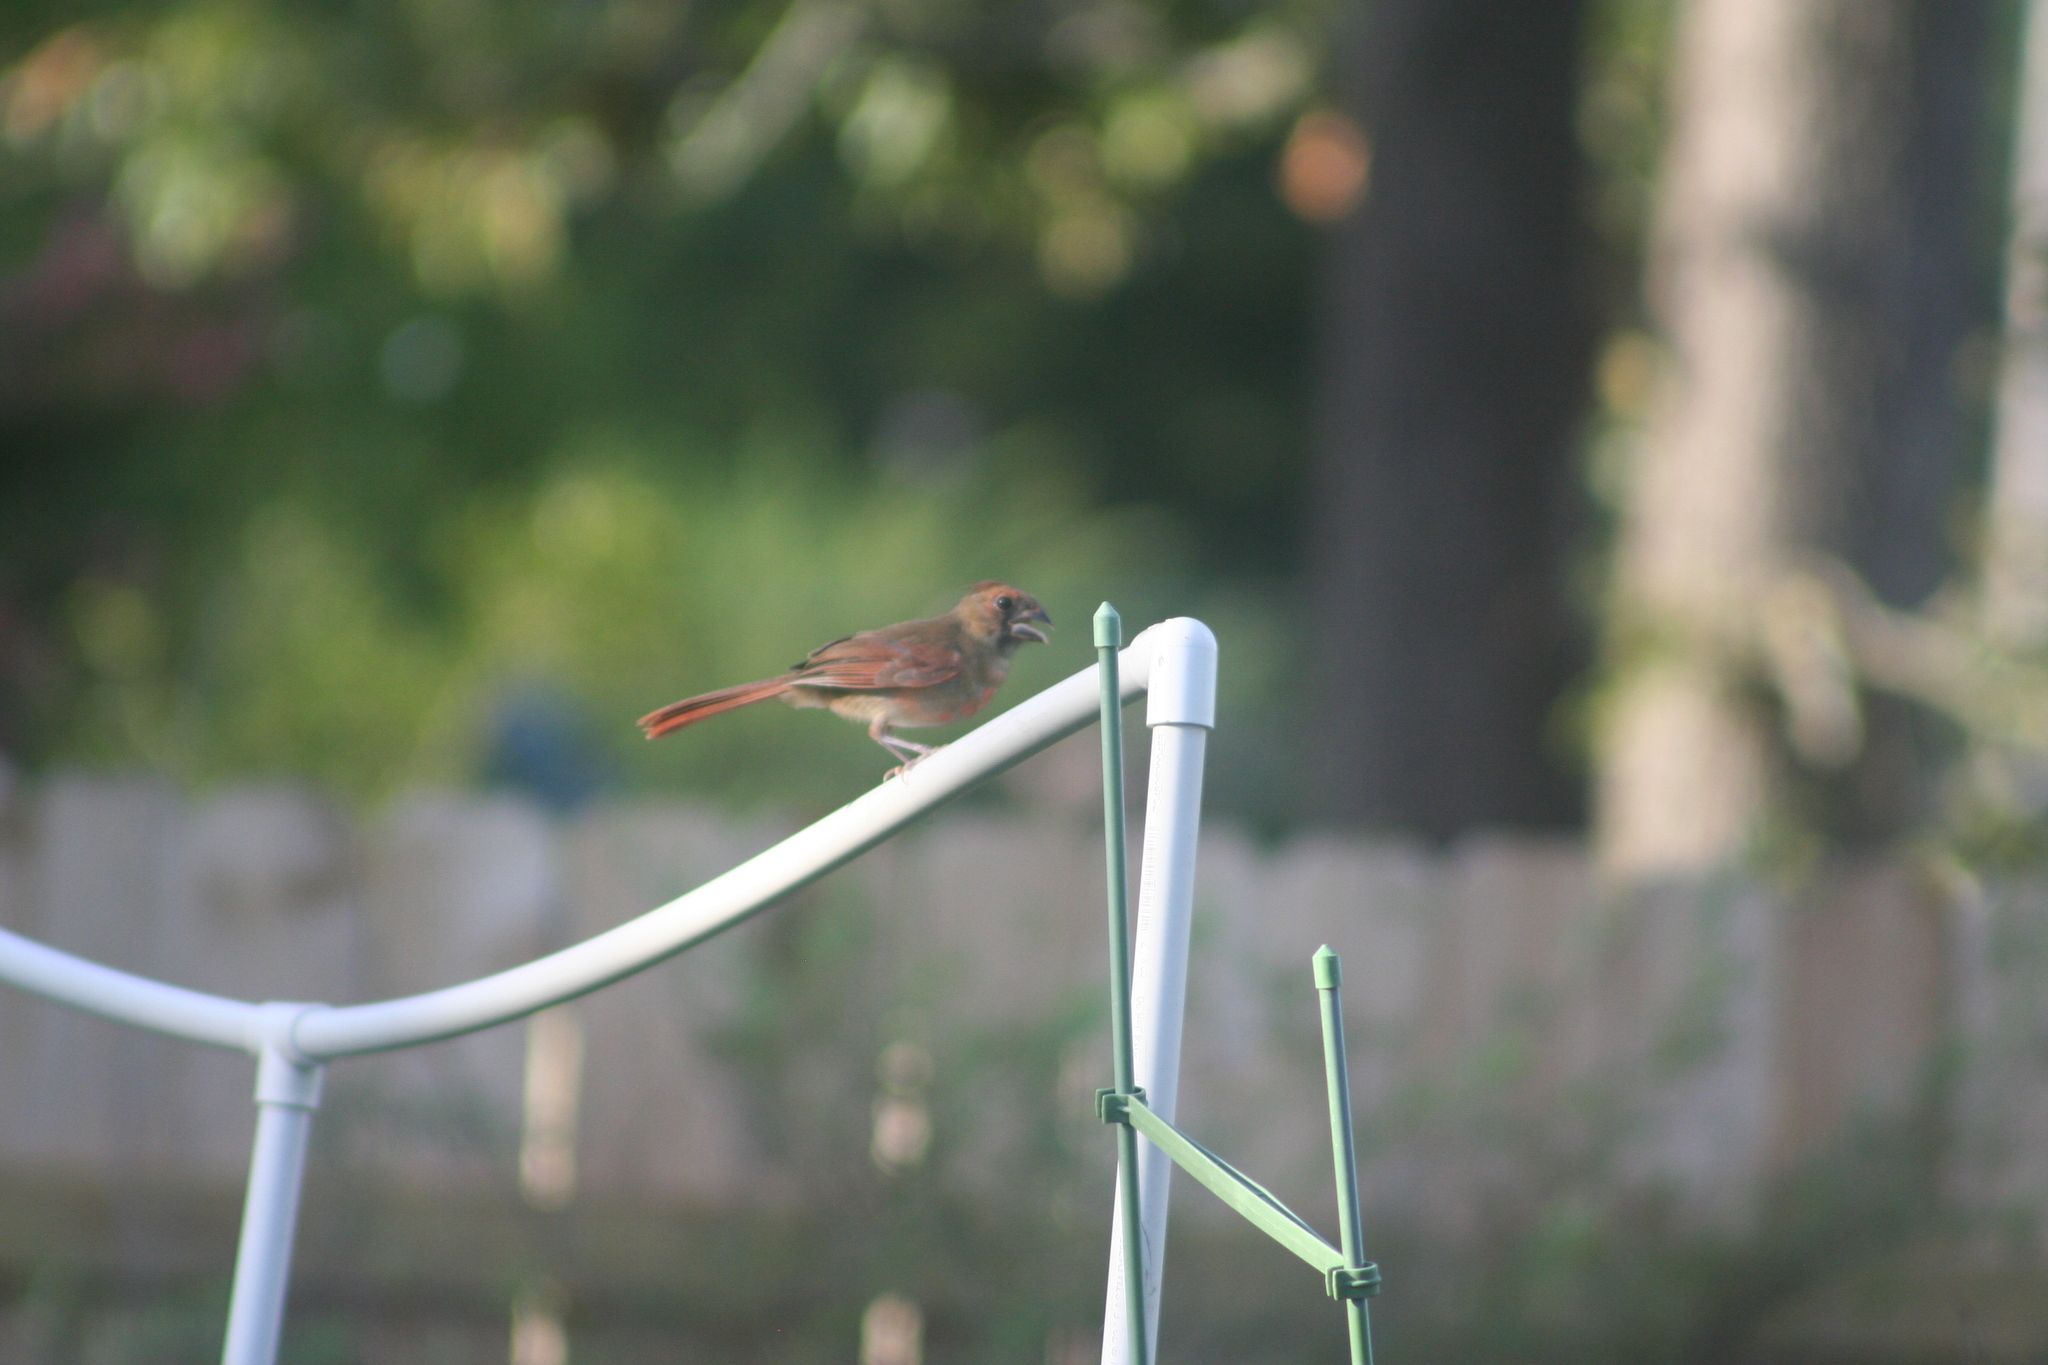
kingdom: Animalia
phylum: Chordata
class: Aves
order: Passeriformes
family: Cardinalidae
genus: Cardinalis
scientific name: Cardinalis cardinalis
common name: Northern cardinal
